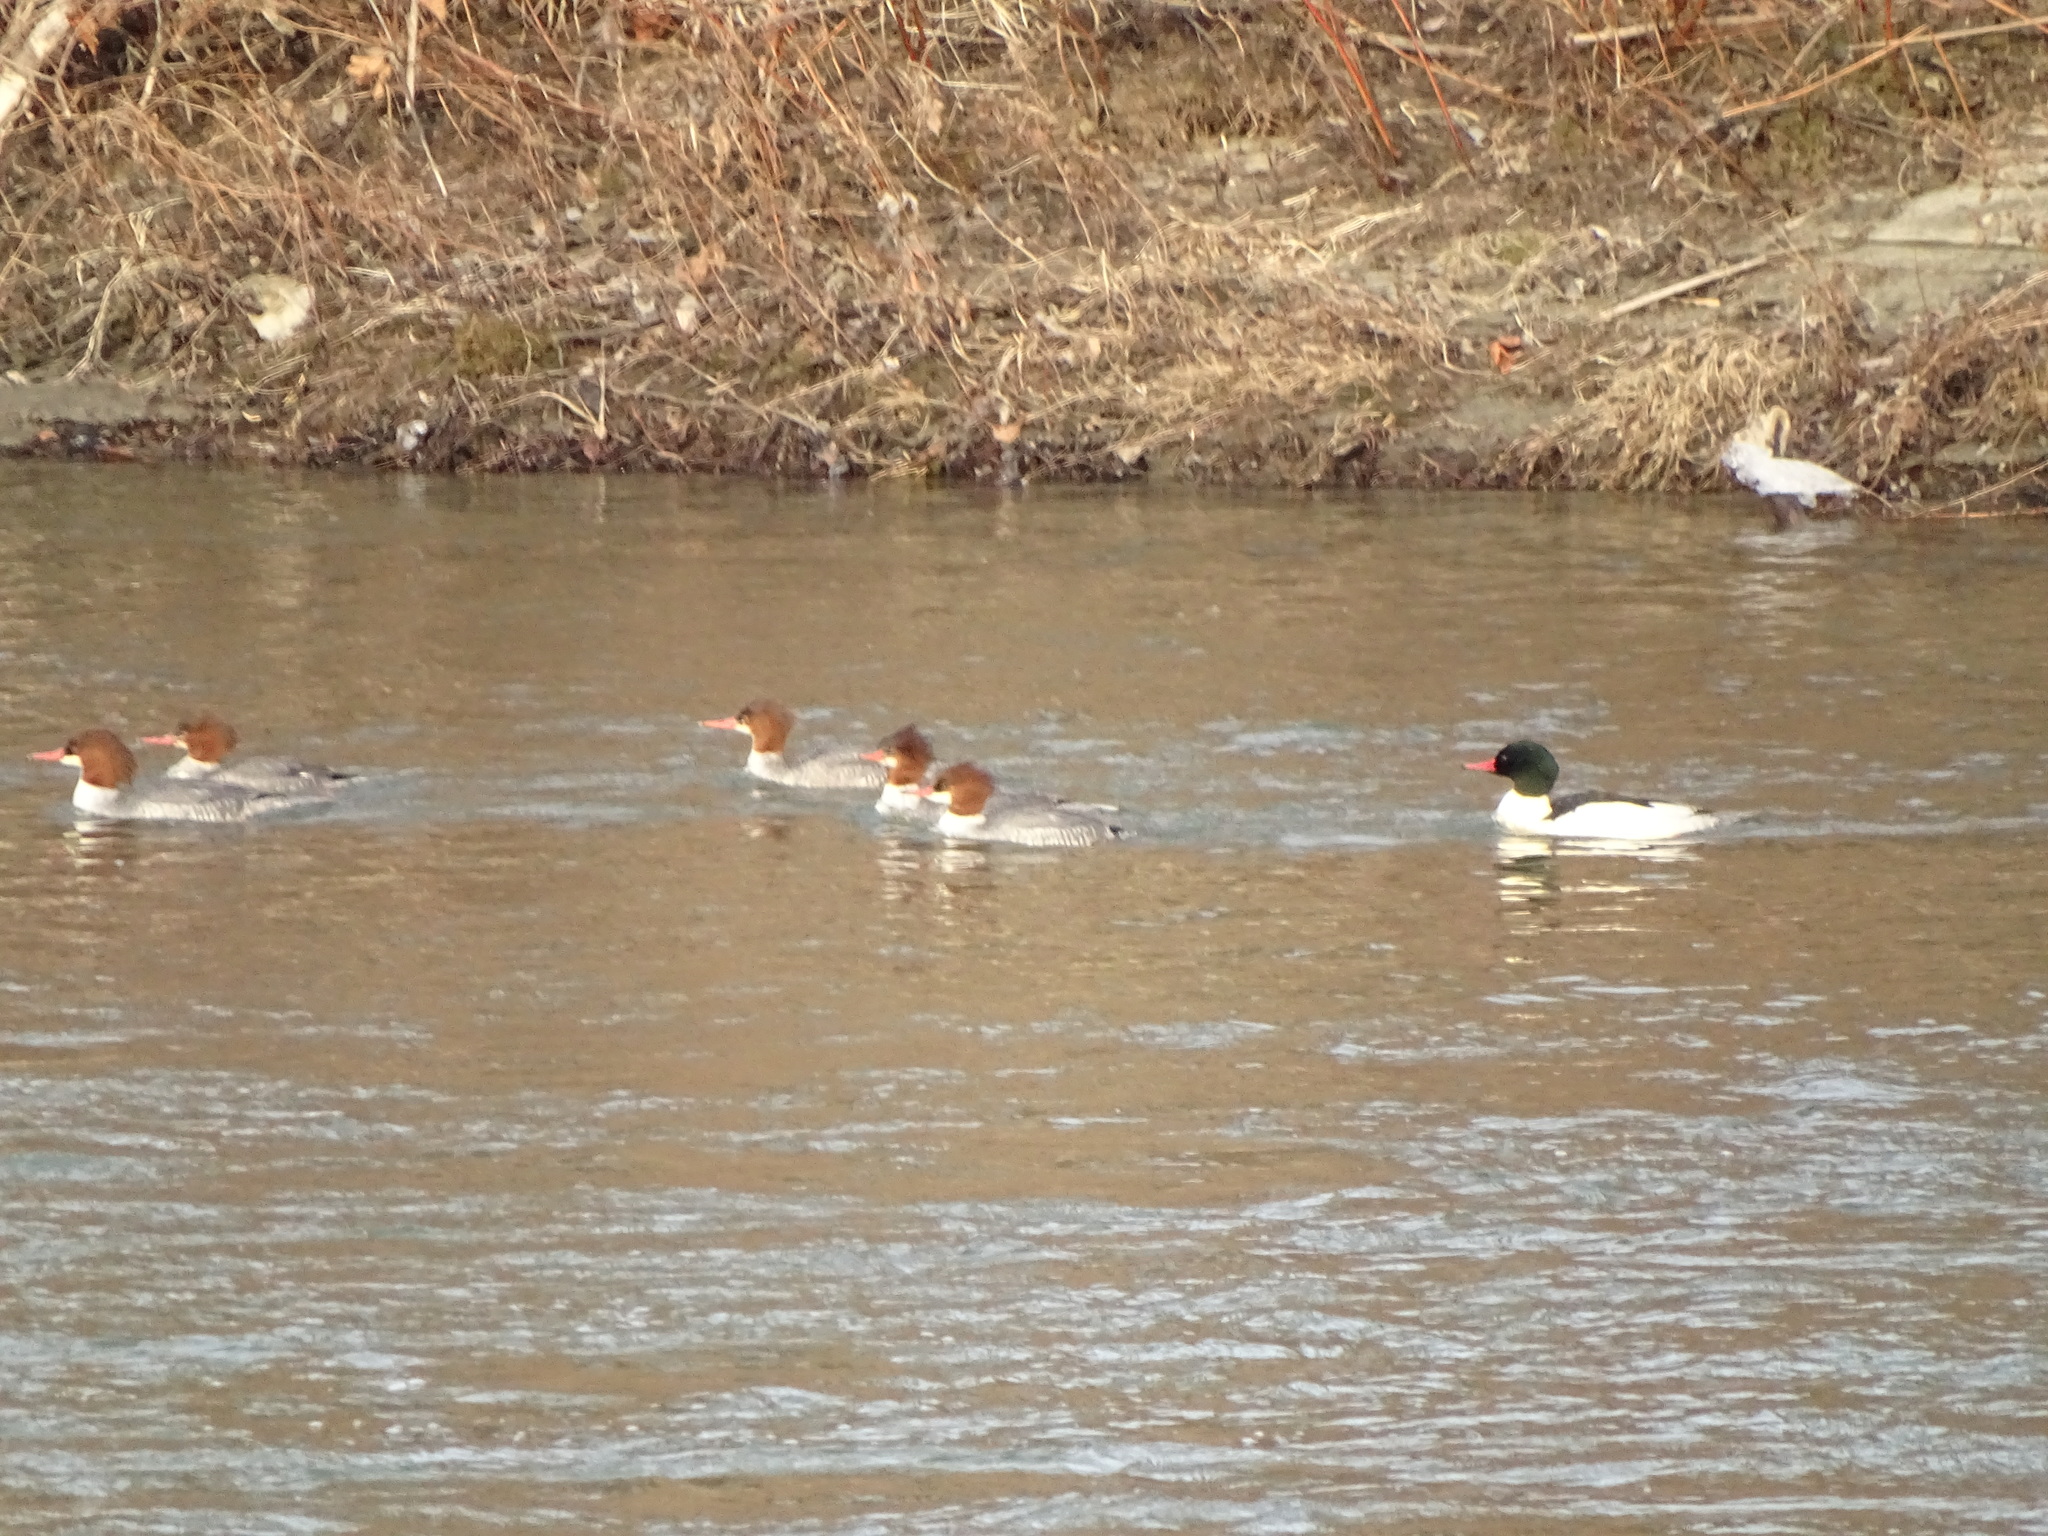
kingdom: Animalia
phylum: Chordata
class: Aves
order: Anseriformes
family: Anatidae
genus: Mergus
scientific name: Mergus merganser
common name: Common merganser
